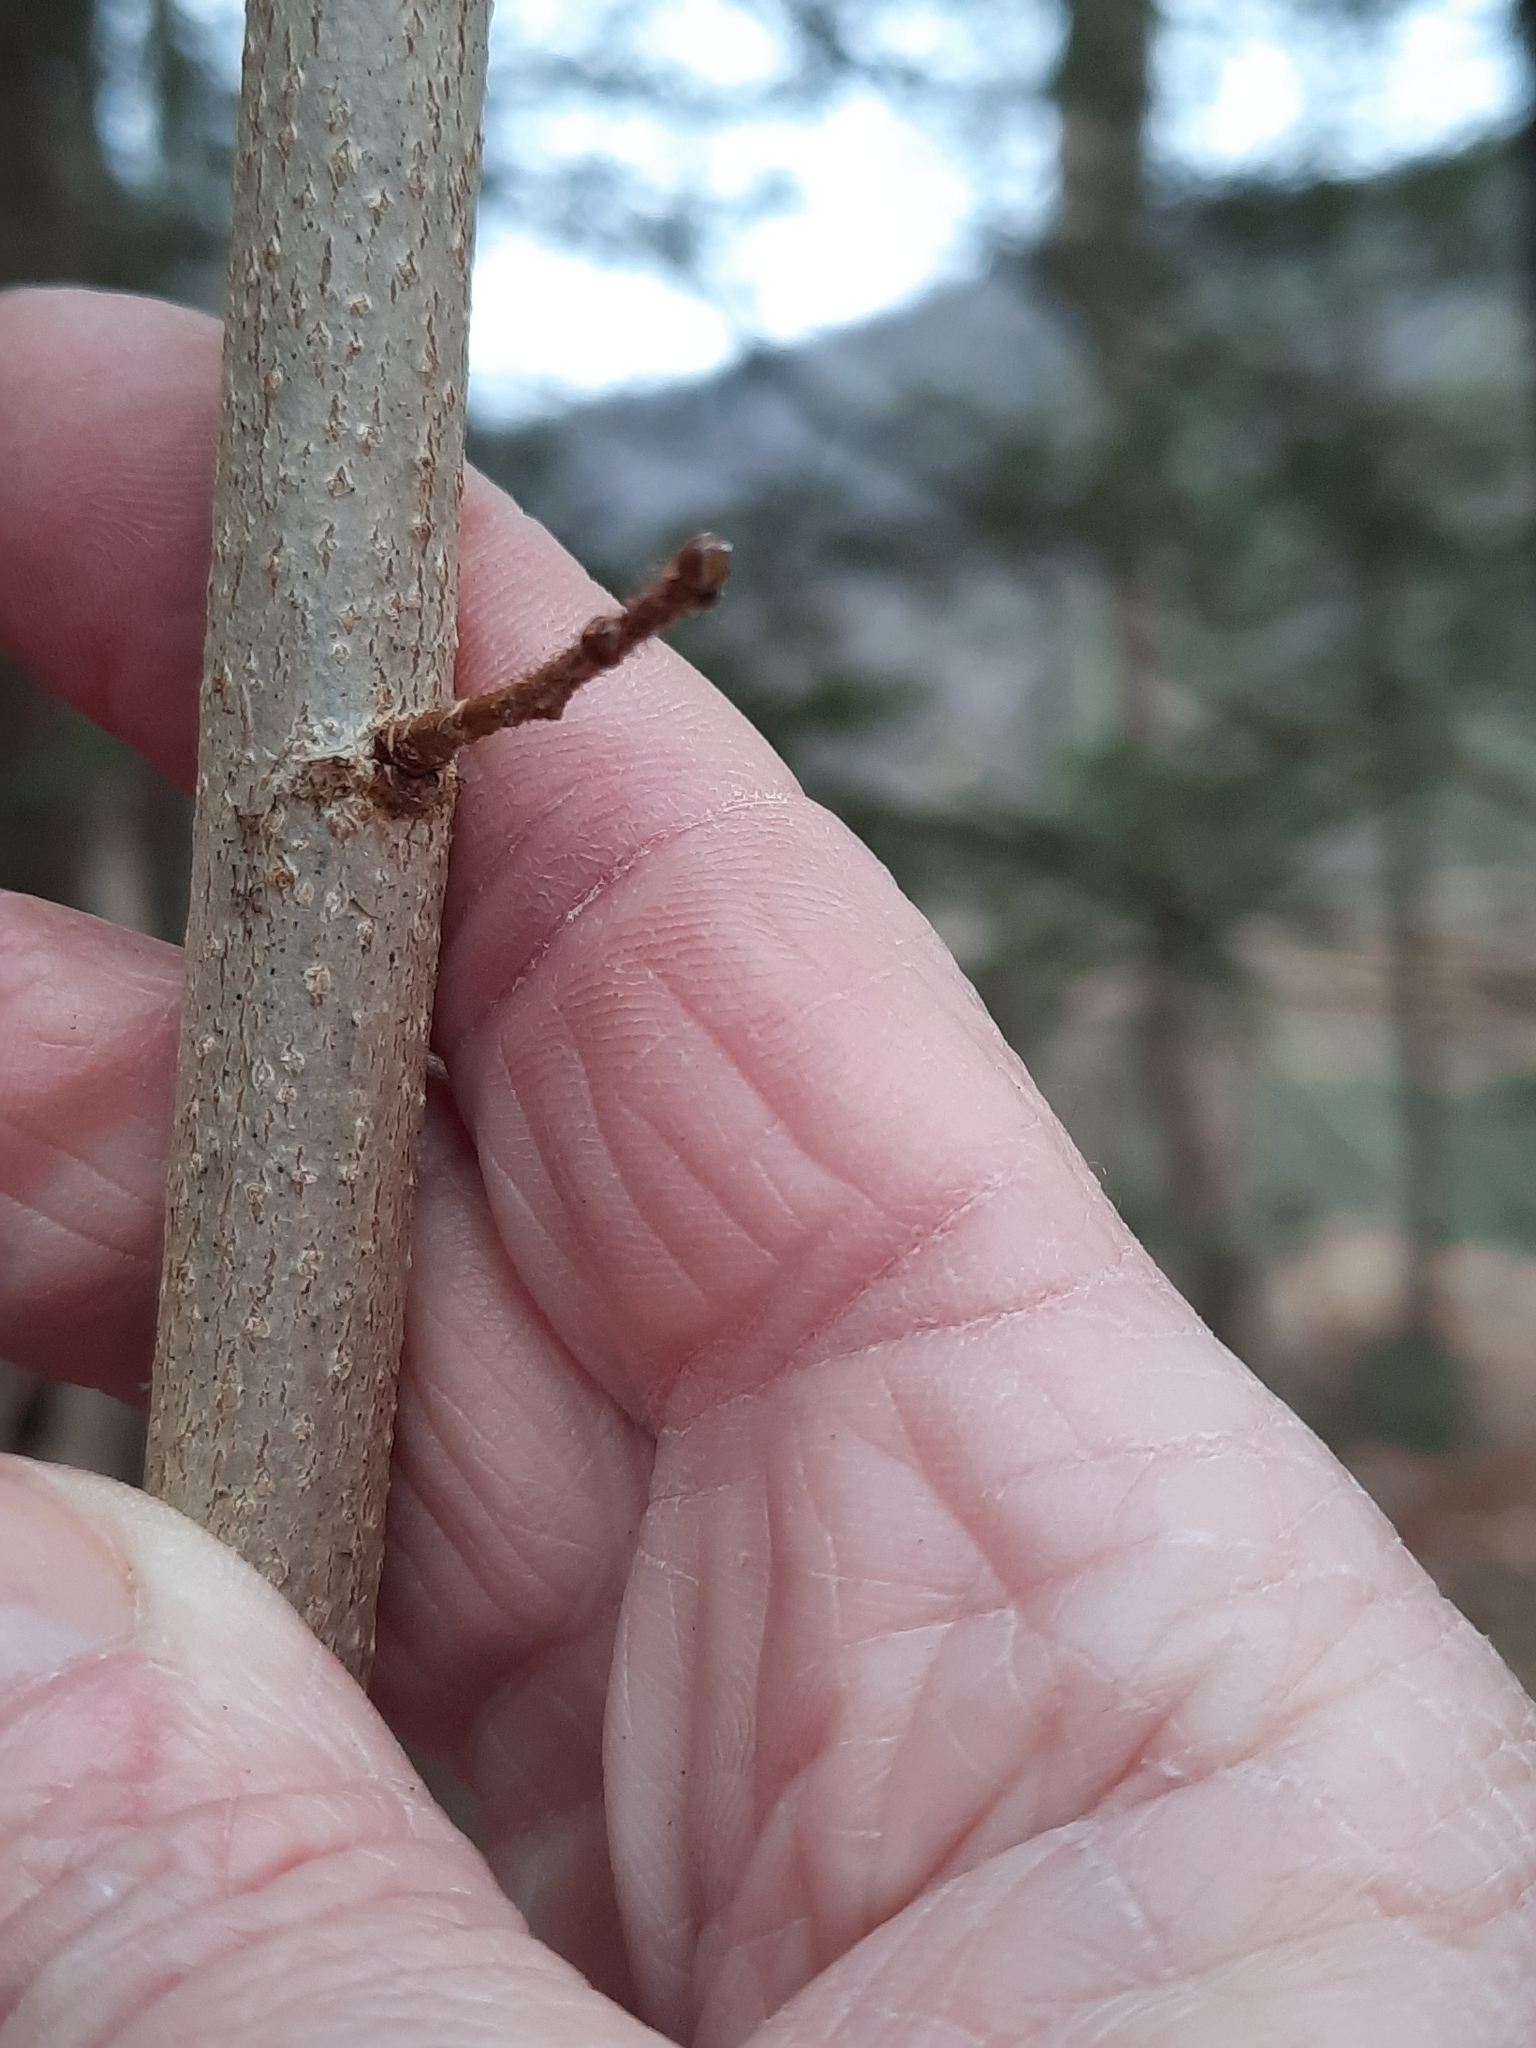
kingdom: Plantae
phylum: Tracheophyta
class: Magnoliopsida
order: Fagales
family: Betulaceae
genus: Corylus
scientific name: Corylus americana
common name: American hazel
